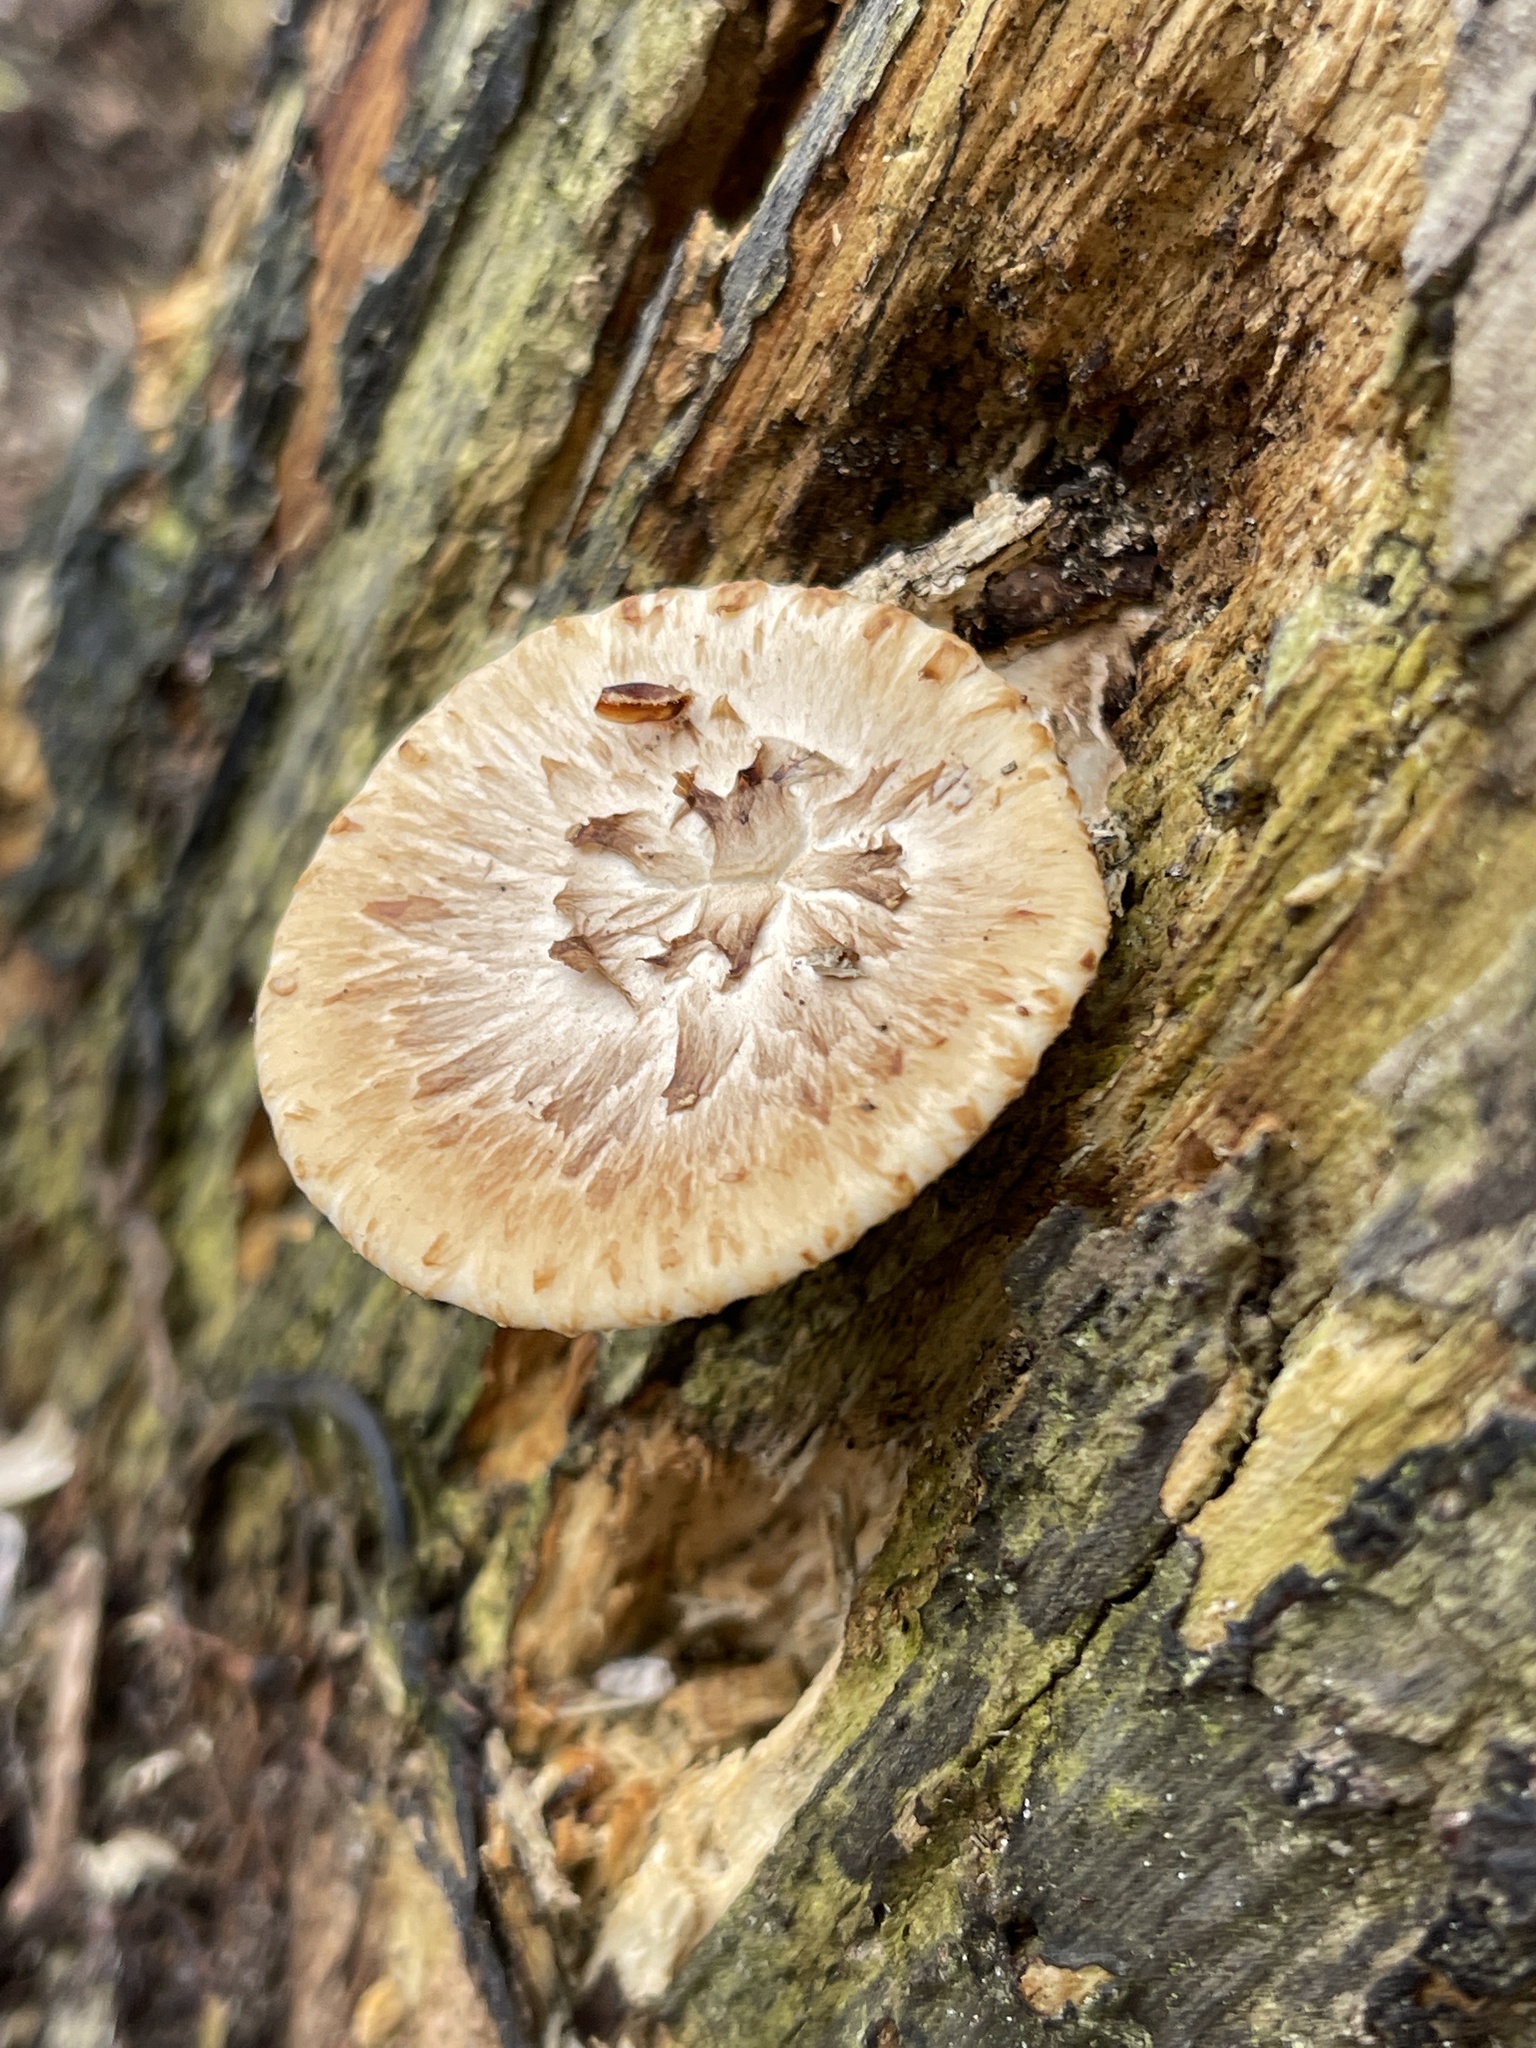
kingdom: Fungi
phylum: Basidiomycota
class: Agaricomycetes
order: Polyporales
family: Polyporaceae
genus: Cerioporus
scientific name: Cerioporus squamosus
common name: Dryad's saddle
